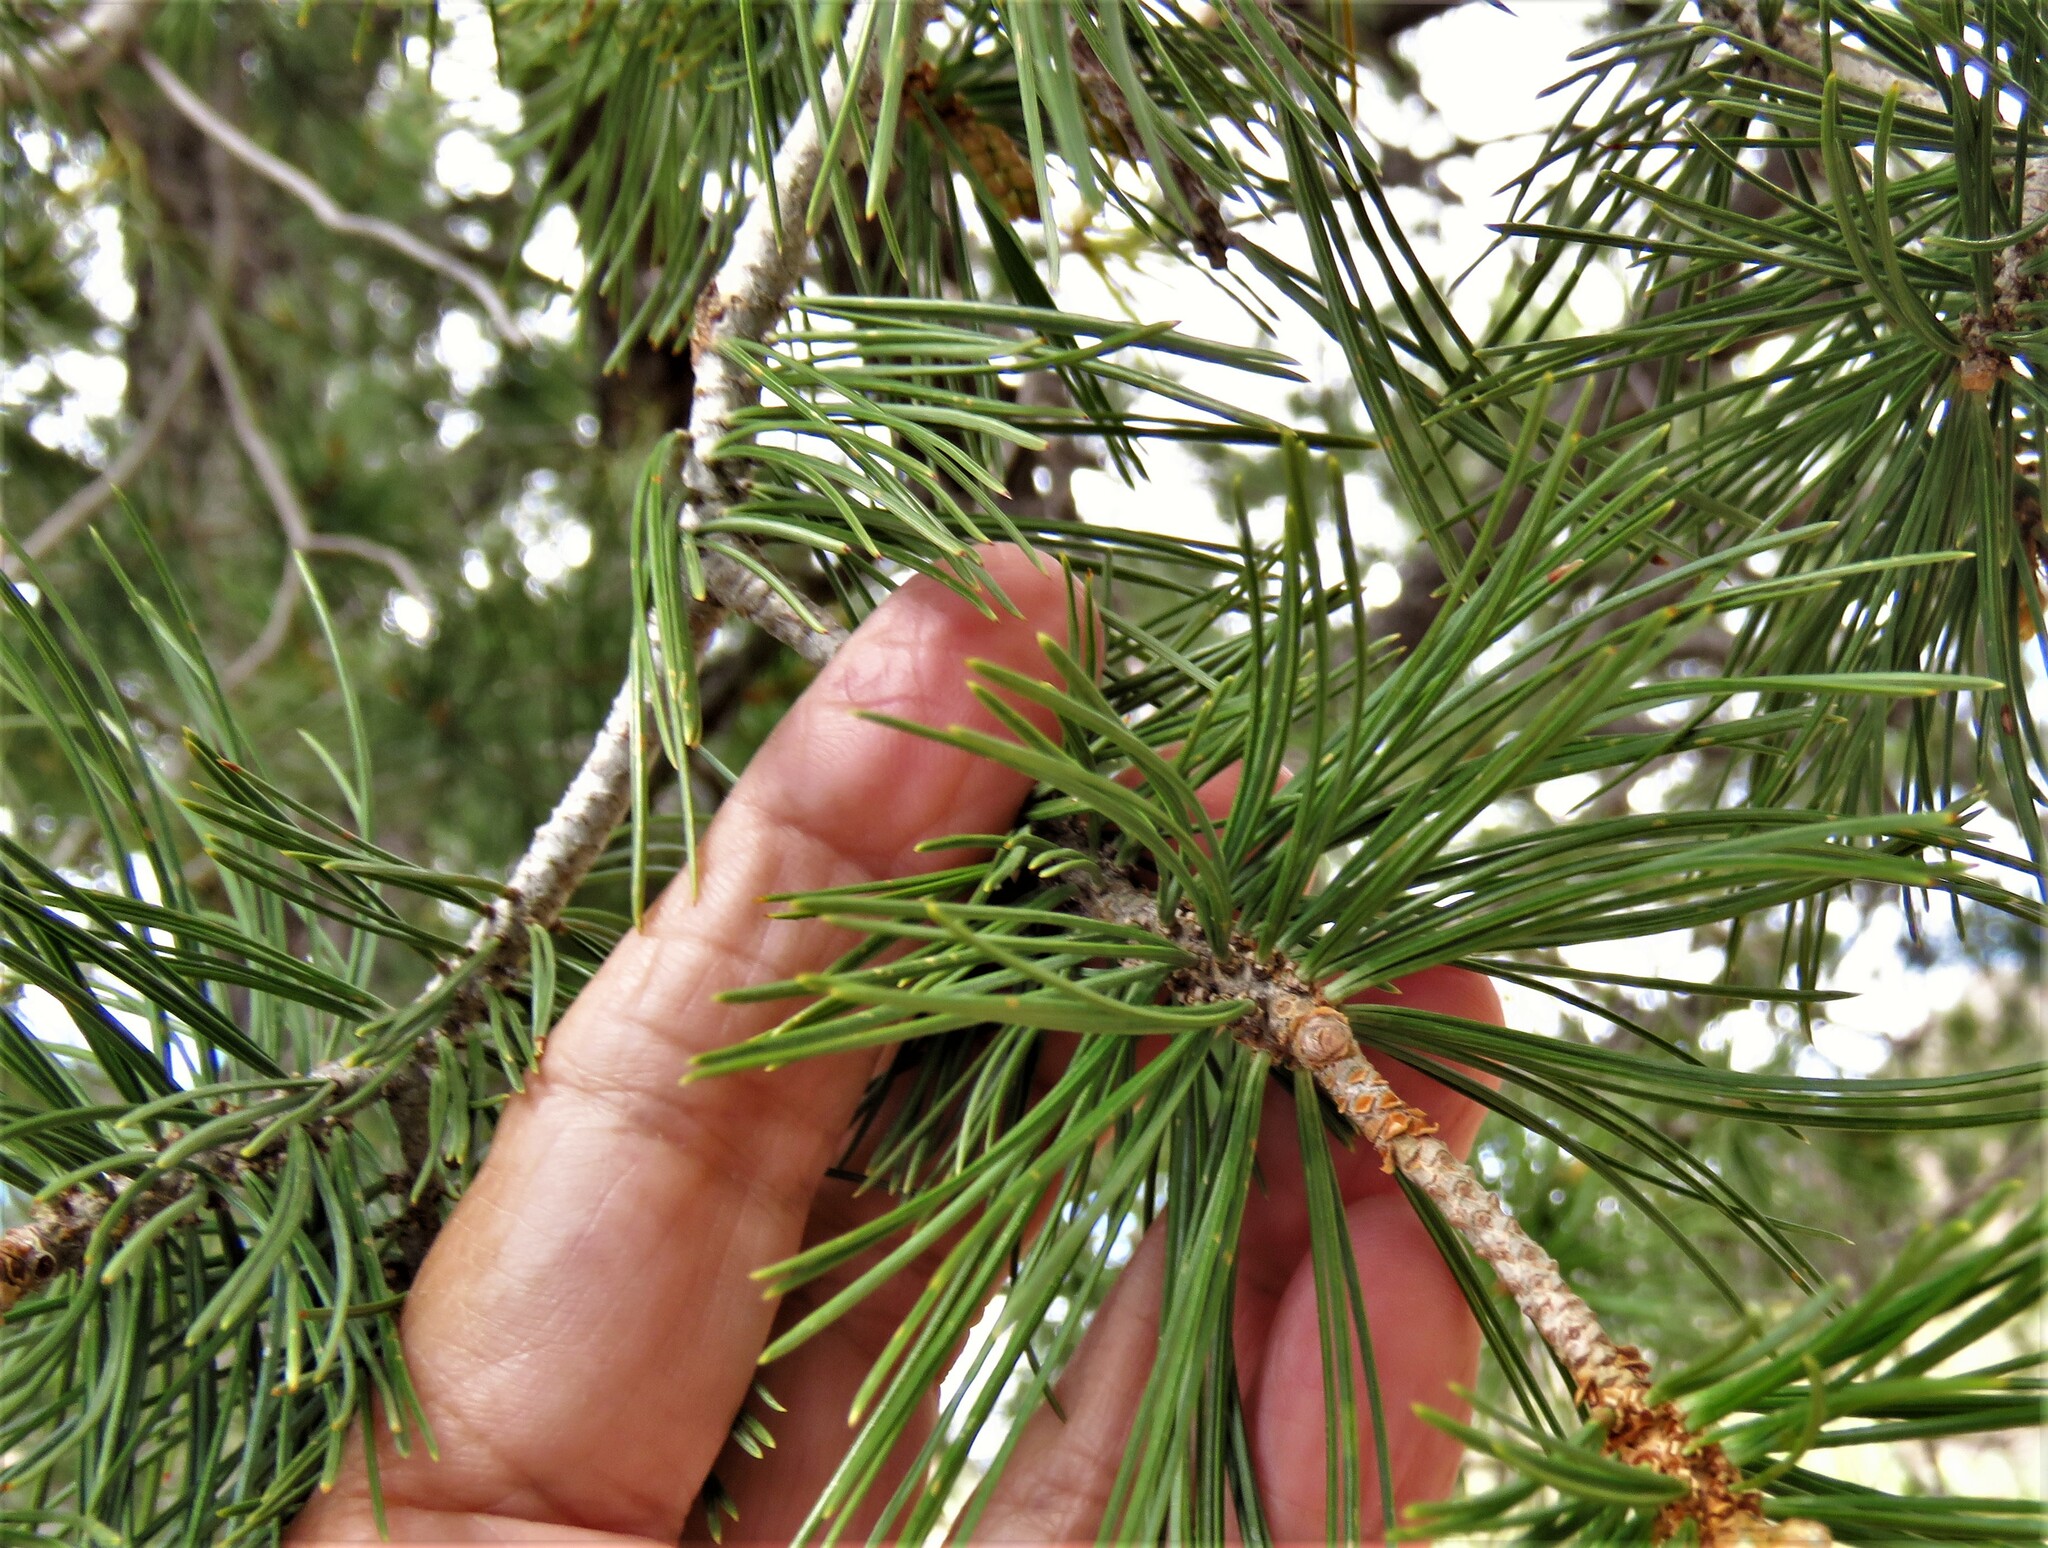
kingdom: Plantae
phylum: Tracheophyta
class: Pinopsida
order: Pinales
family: Pinaceae
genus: Pinus
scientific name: Pinus cembroides
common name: Mexican nut pine
